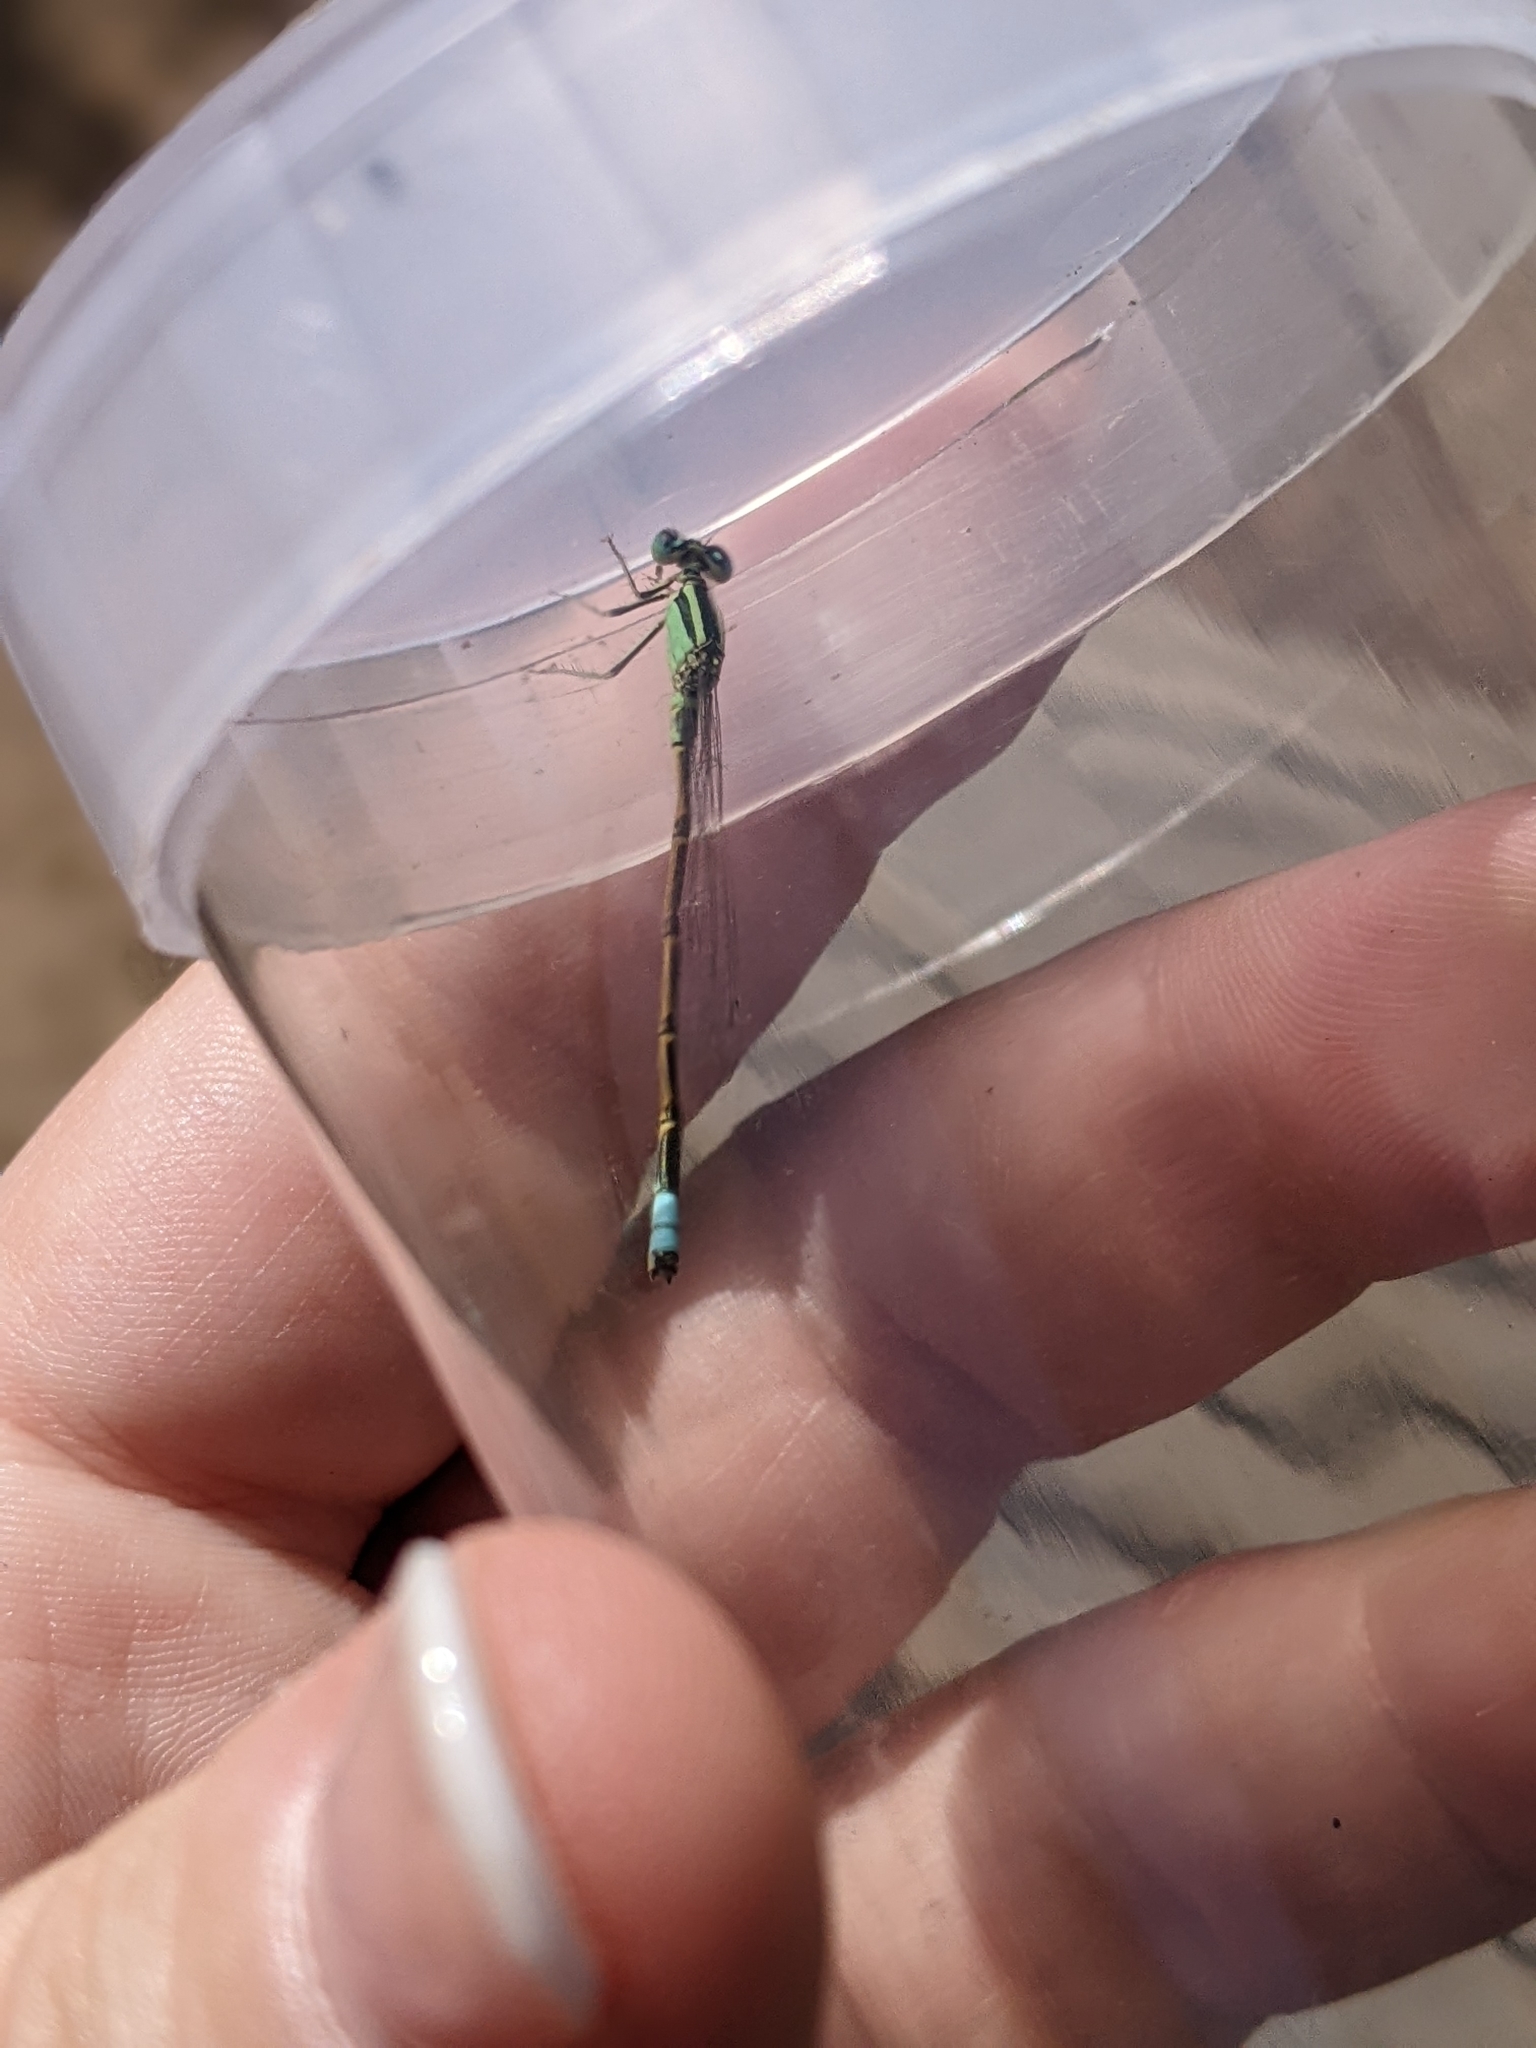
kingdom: Animalia
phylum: Arthropoda
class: Insecta
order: Odonata
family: Coenagrionidae
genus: Ischnura
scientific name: Ischnura barberi
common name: Desert forktail
